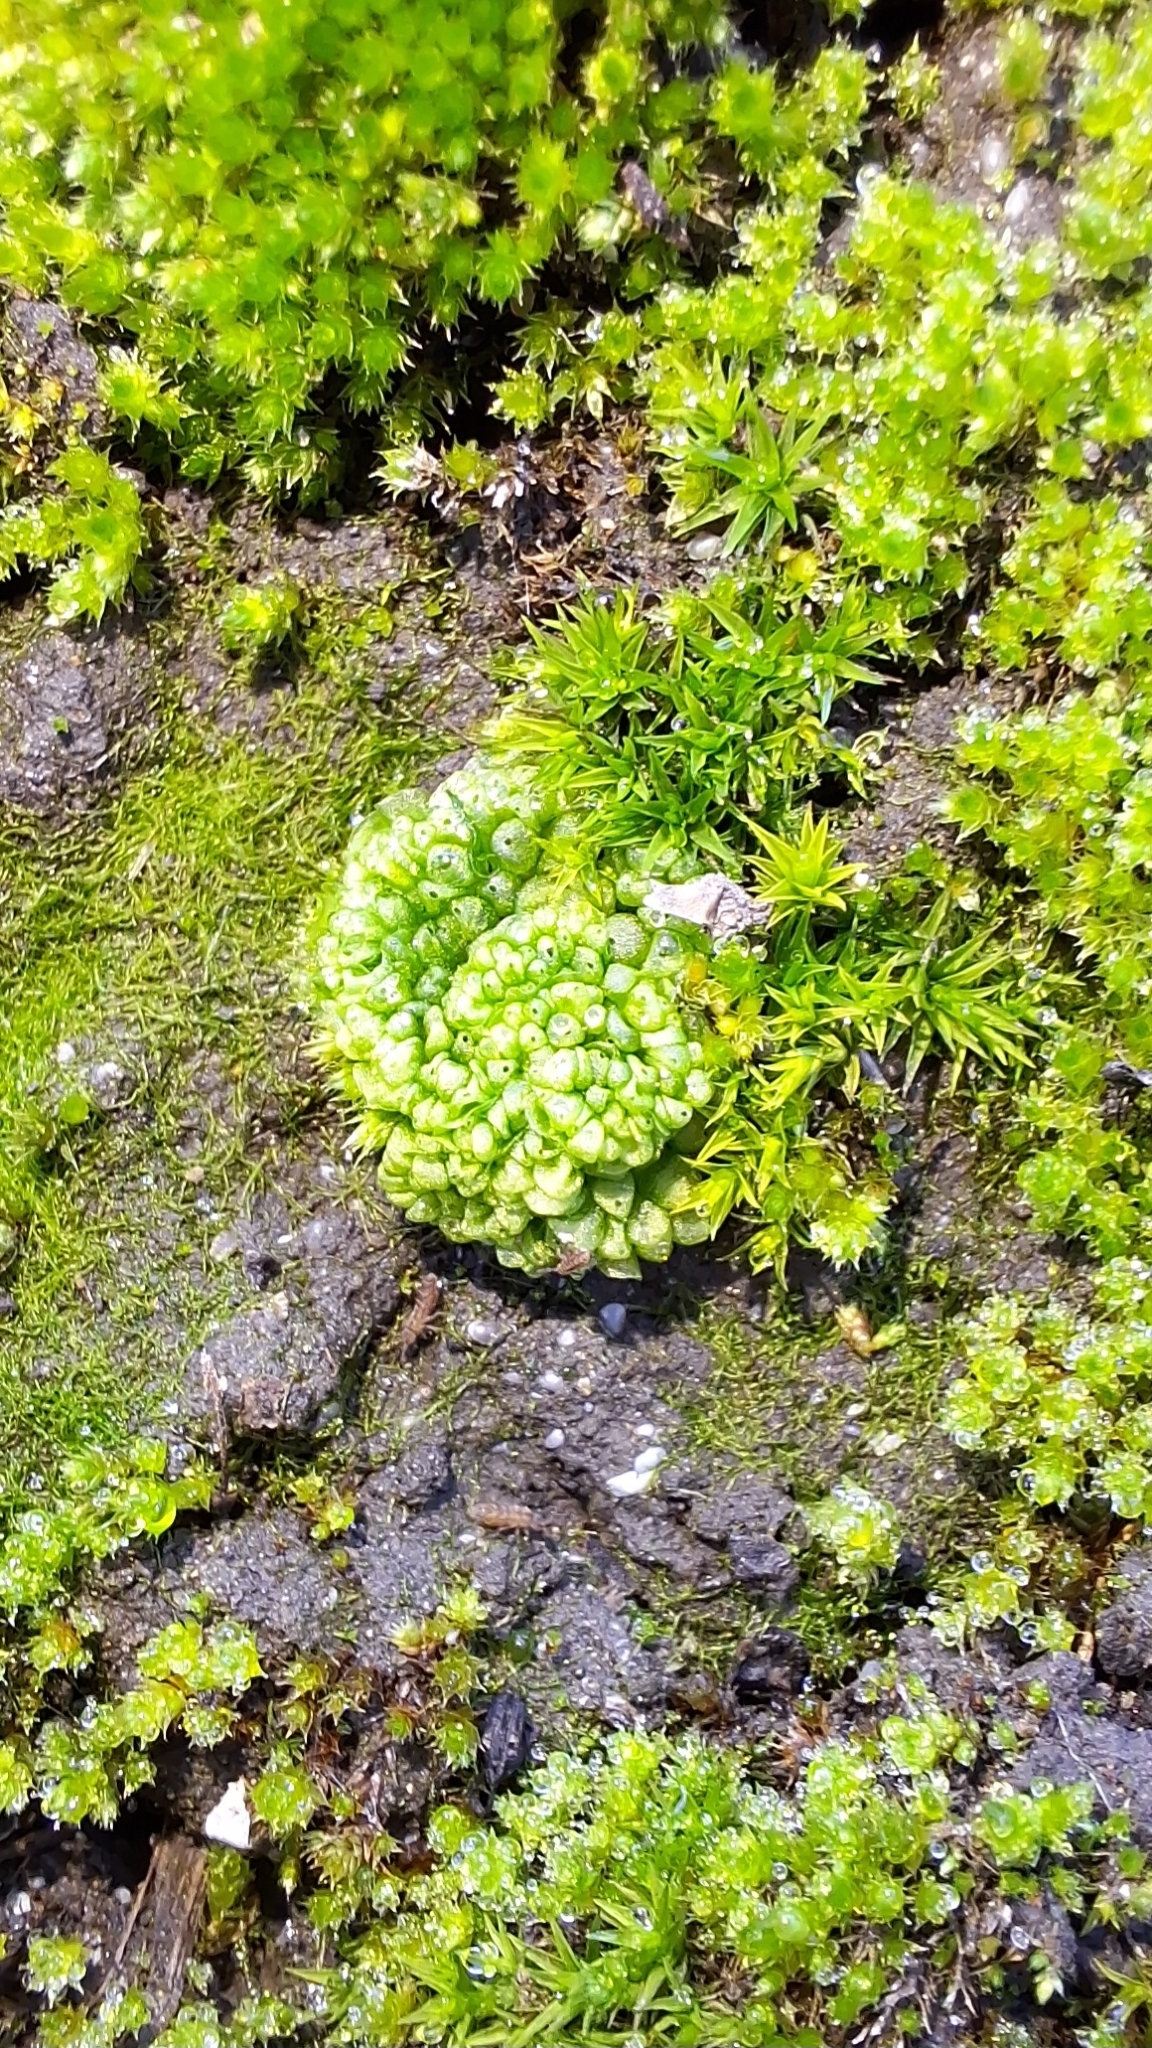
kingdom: Plantae
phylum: Marchantiophyta
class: Marchantiopsida
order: Sphaerocarpales
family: Sphaerocarpaceae
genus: Sphaerocarpos
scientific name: Sphaerocarpos texanus
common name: Texas balloonwort
